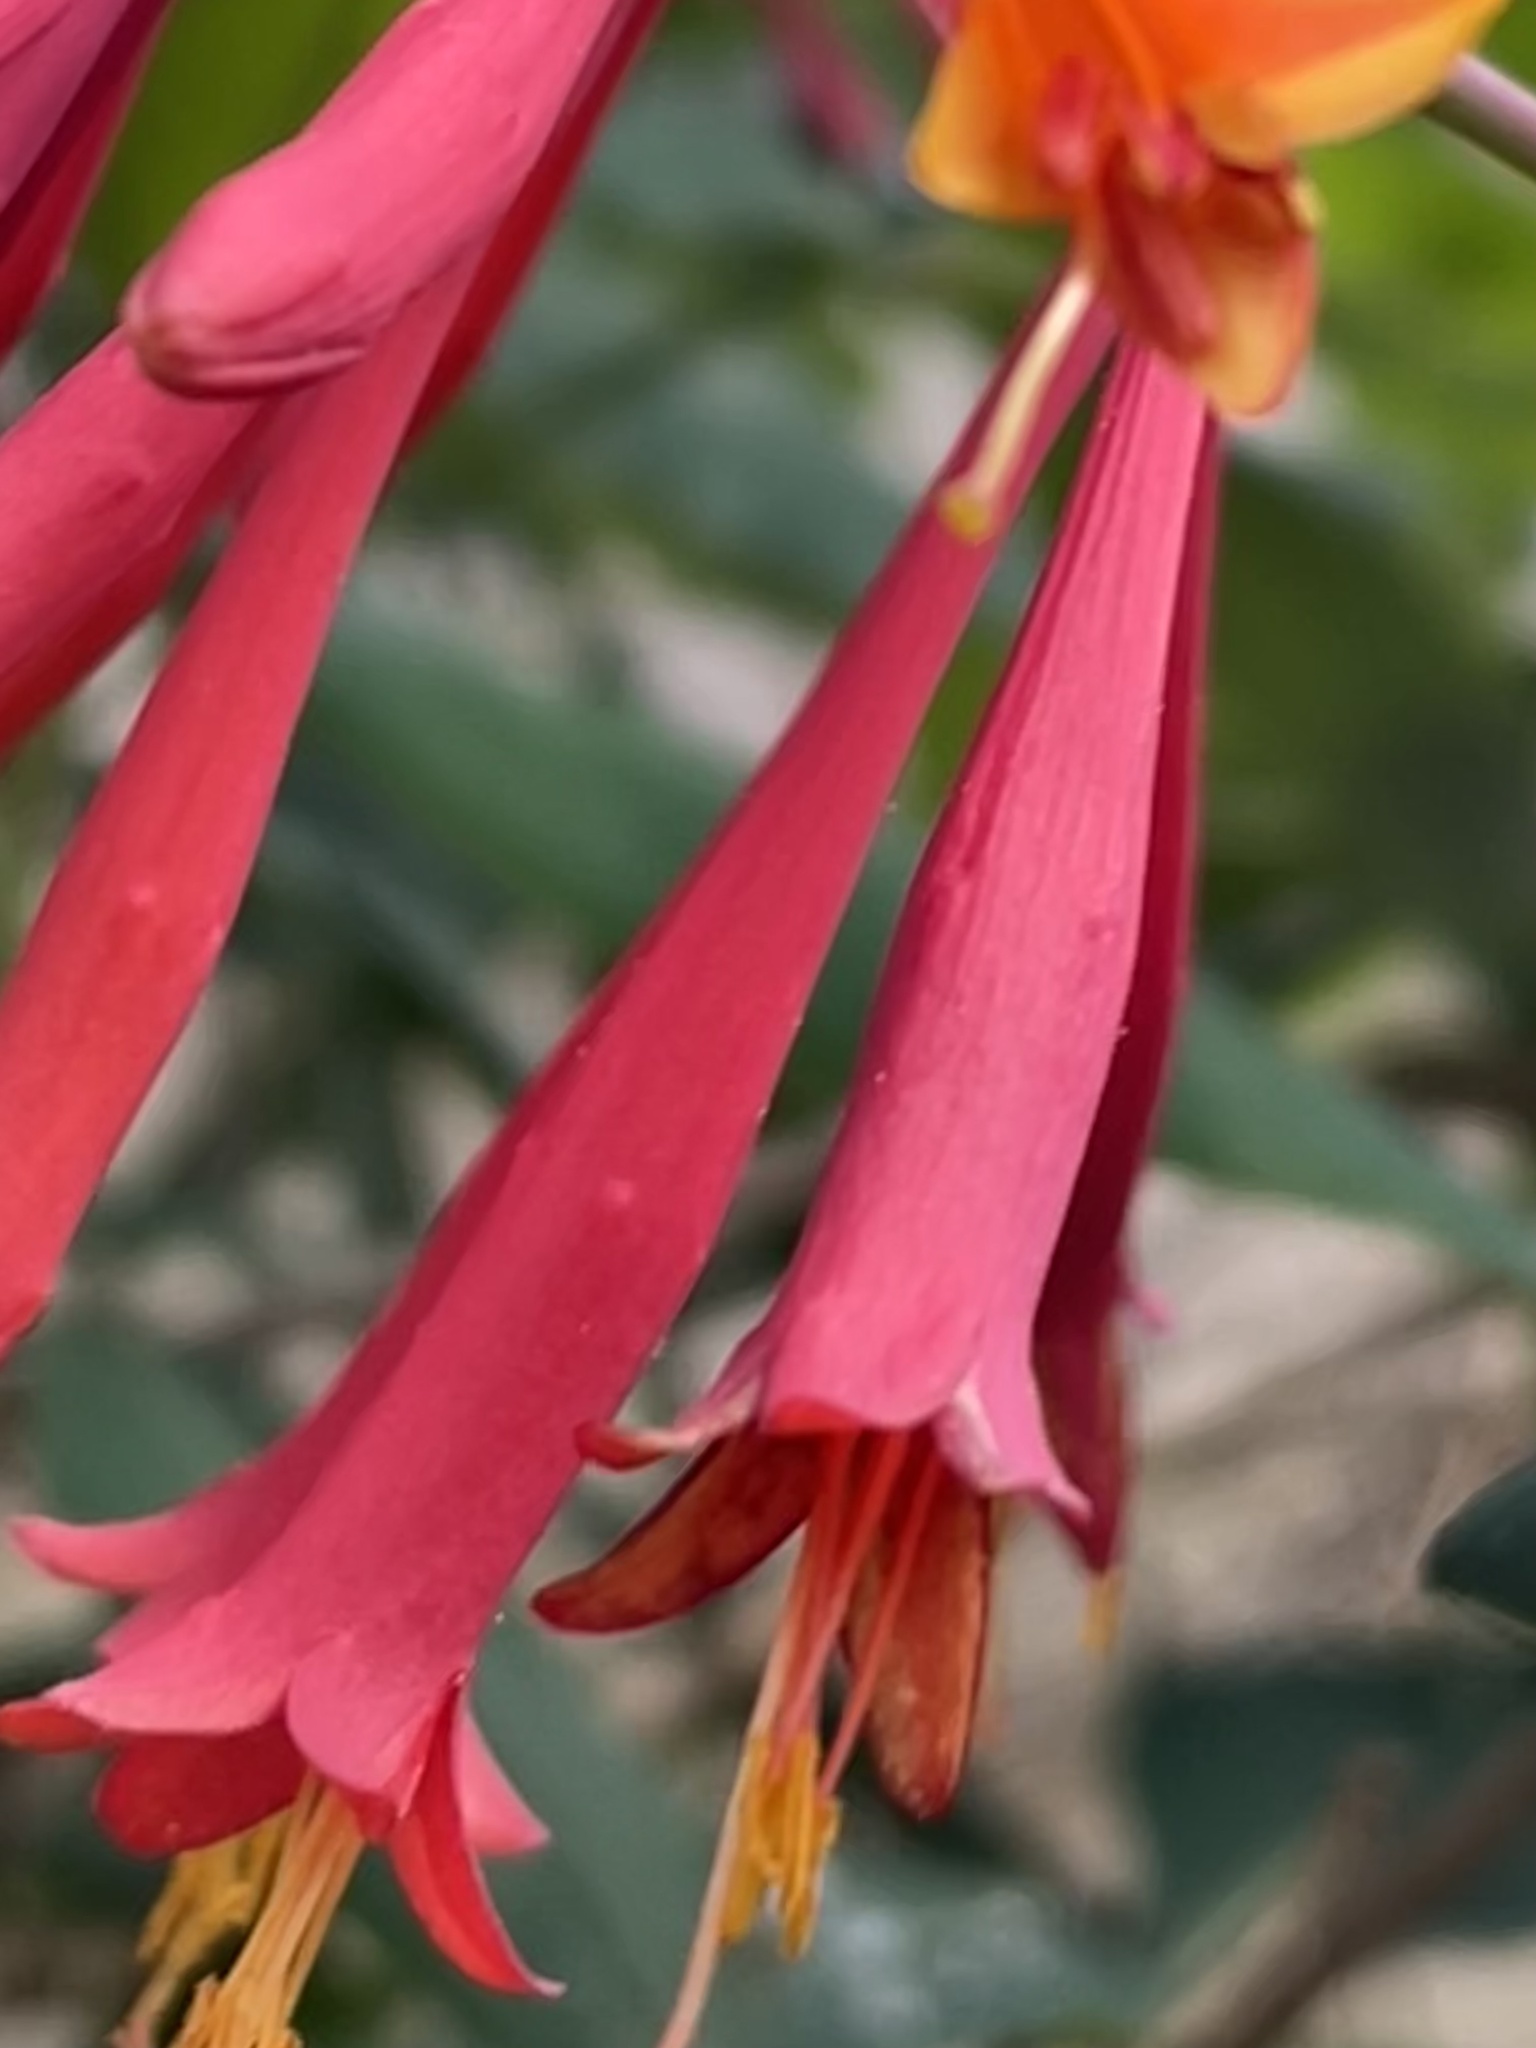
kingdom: Plantae
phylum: Tracheophyta
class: Magnoliopsida
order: Dipsacales
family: Caprifoliaceae
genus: Lonicera
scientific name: Lonicera sempervirens
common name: Coral honeysuckle
